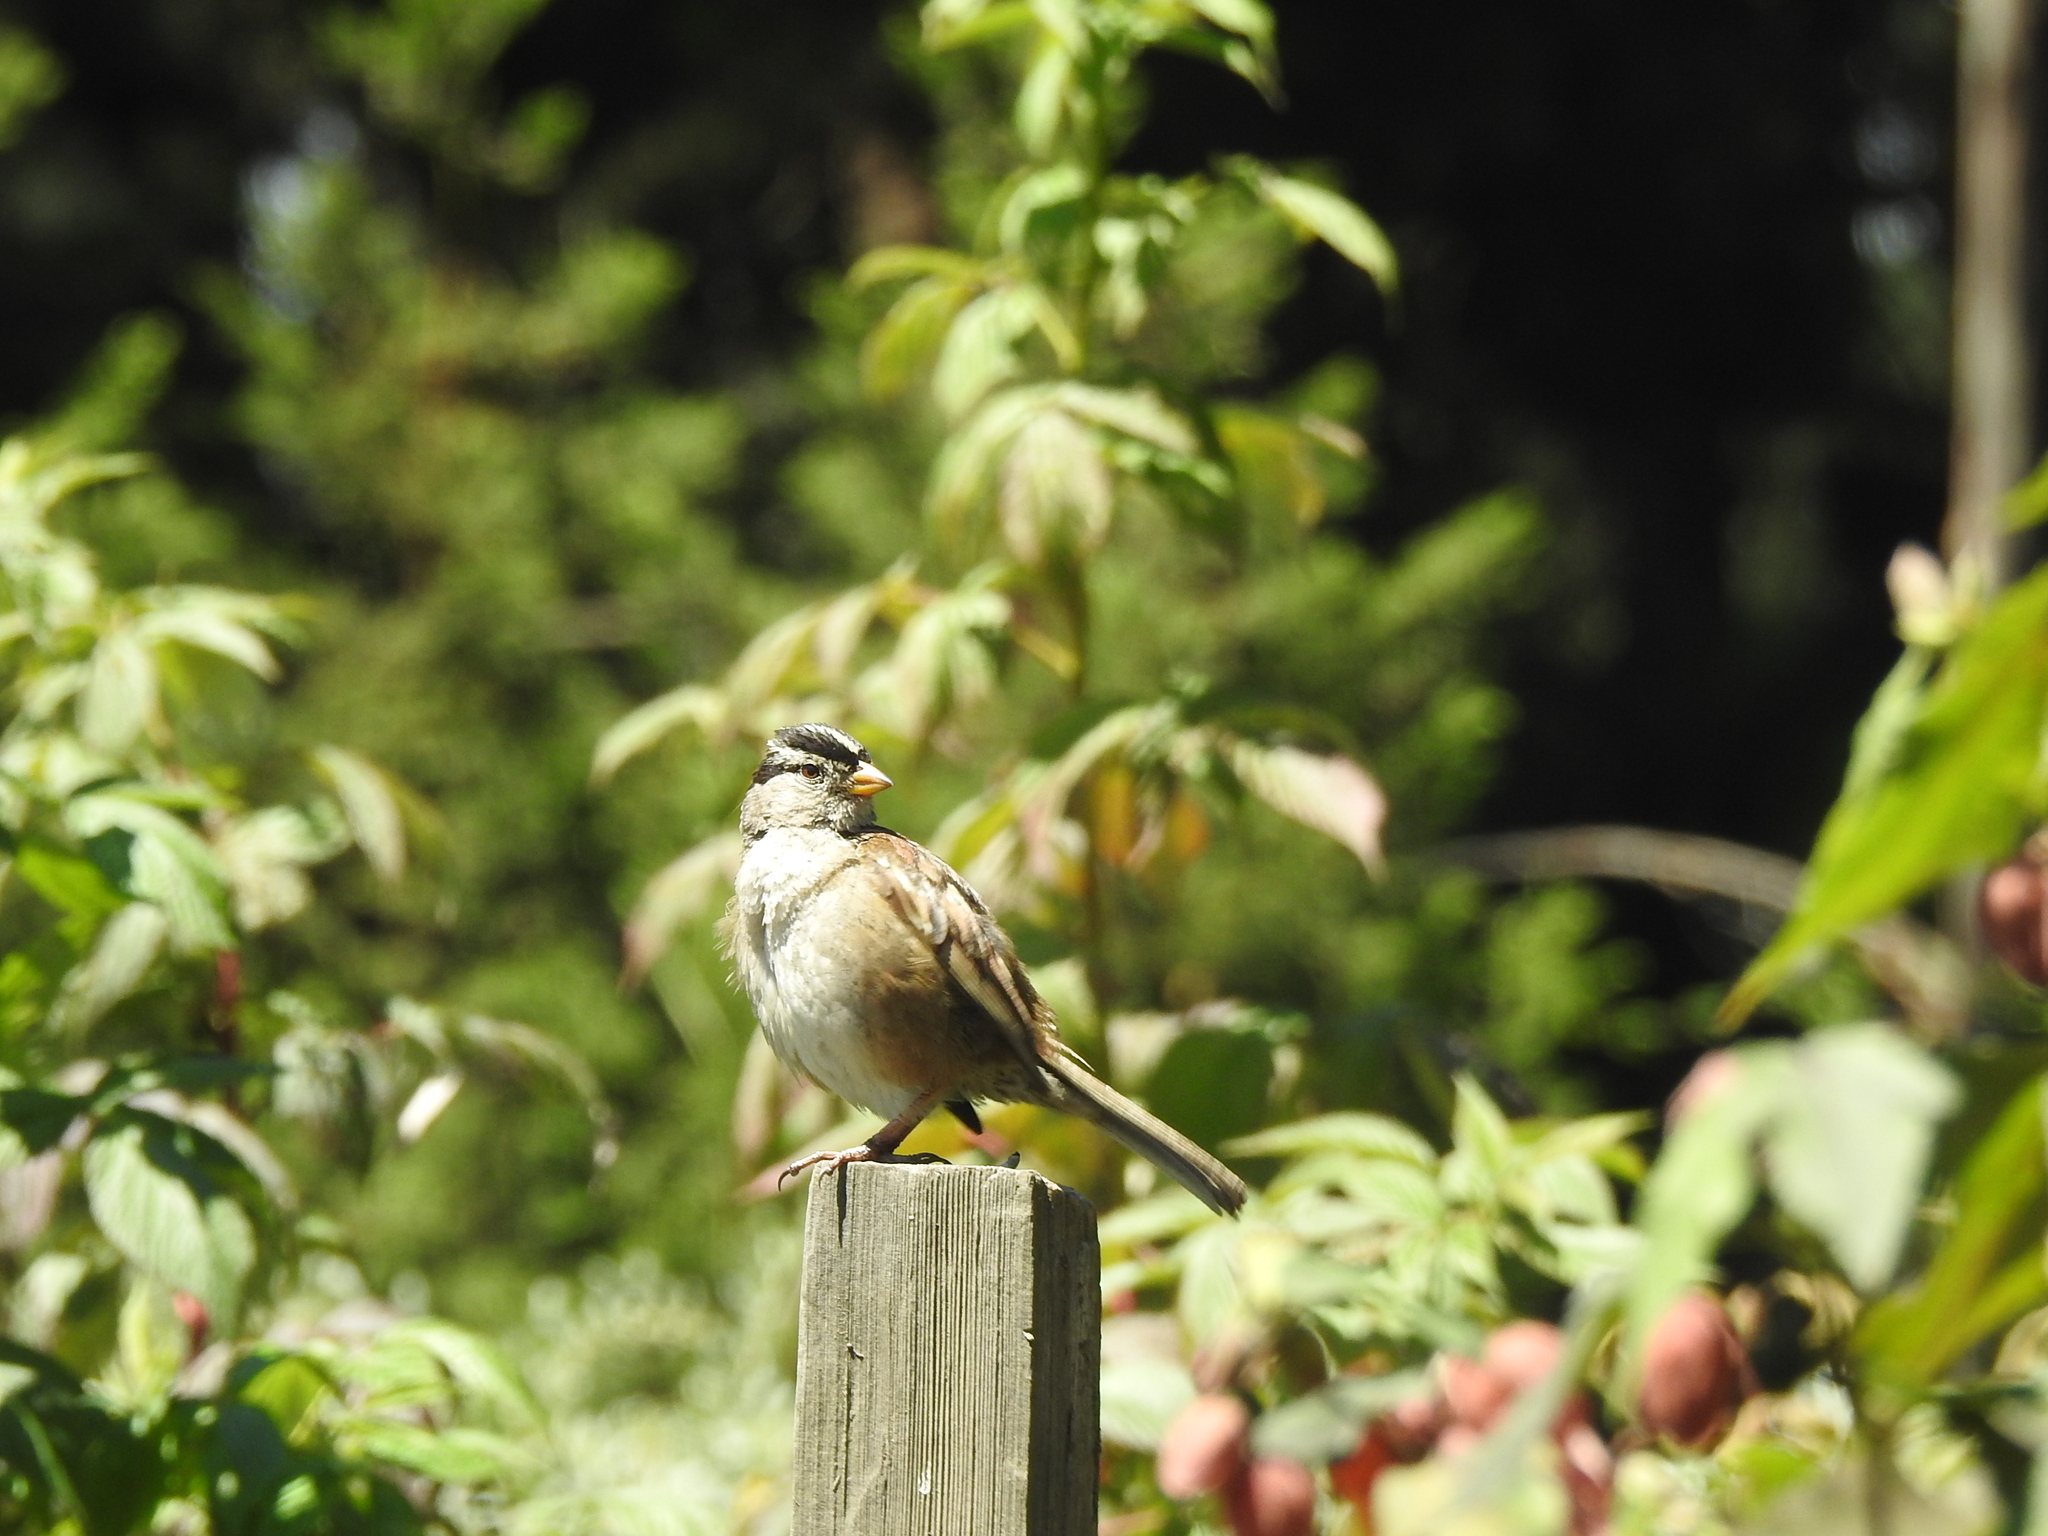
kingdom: Animalia
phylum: Chordata
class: Aves
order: Passeriformes
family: Passerellidae
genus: Zonotrichia
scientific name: Zonotrichia leucophrys
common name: White-crowned sparrow
